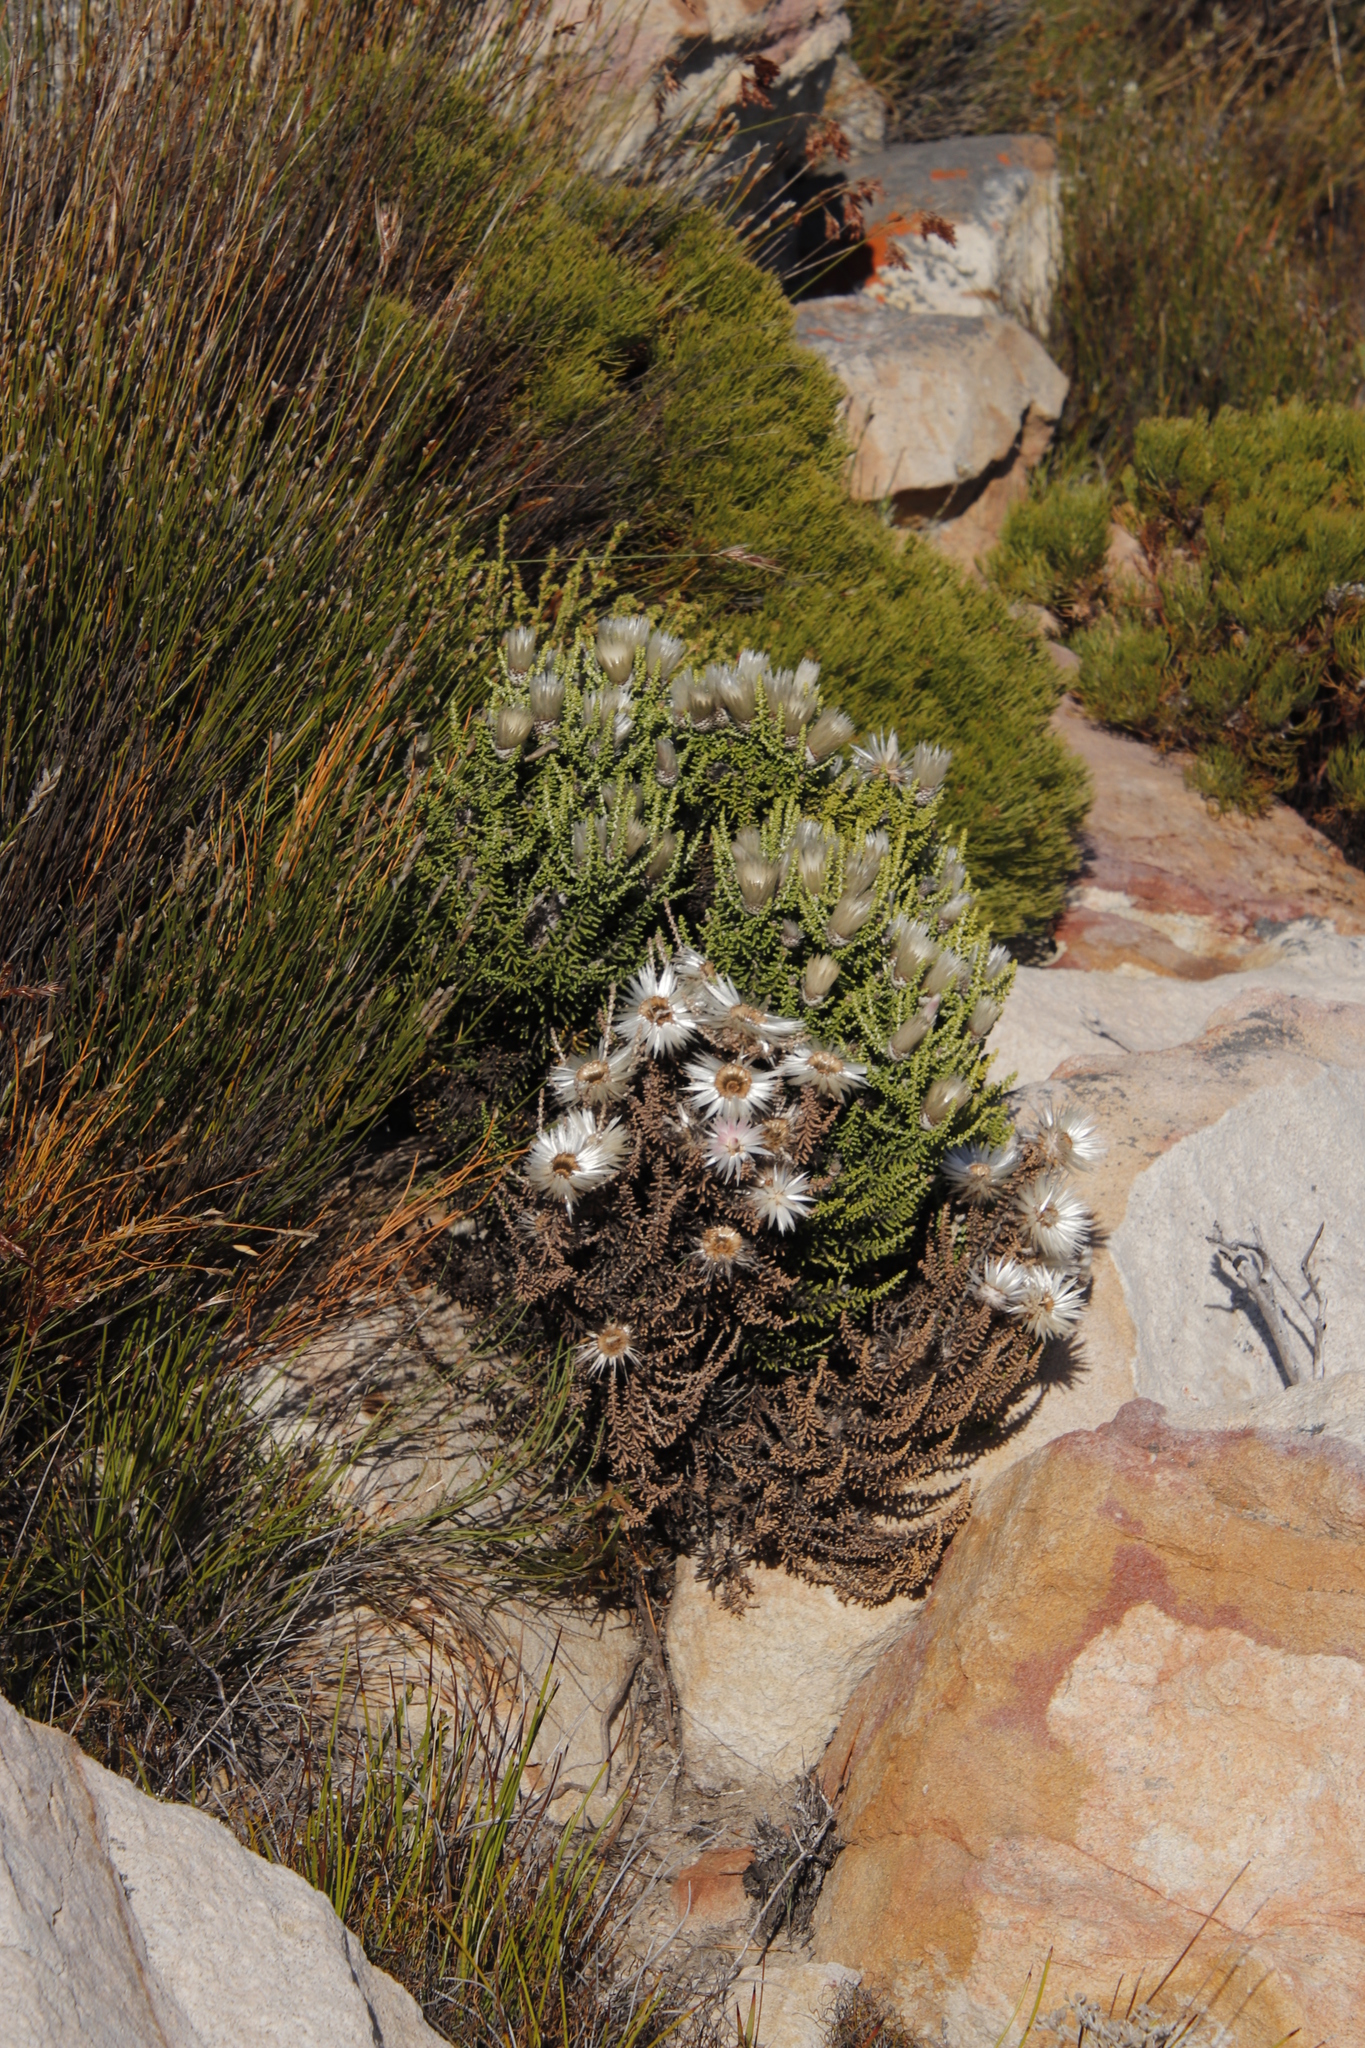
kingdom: Plantae
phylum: Tracheophyta
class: Magnoliopsida
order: Asterales
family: Asteraceae
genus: Phaenocoma
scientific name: Phaenocoma prolifera
